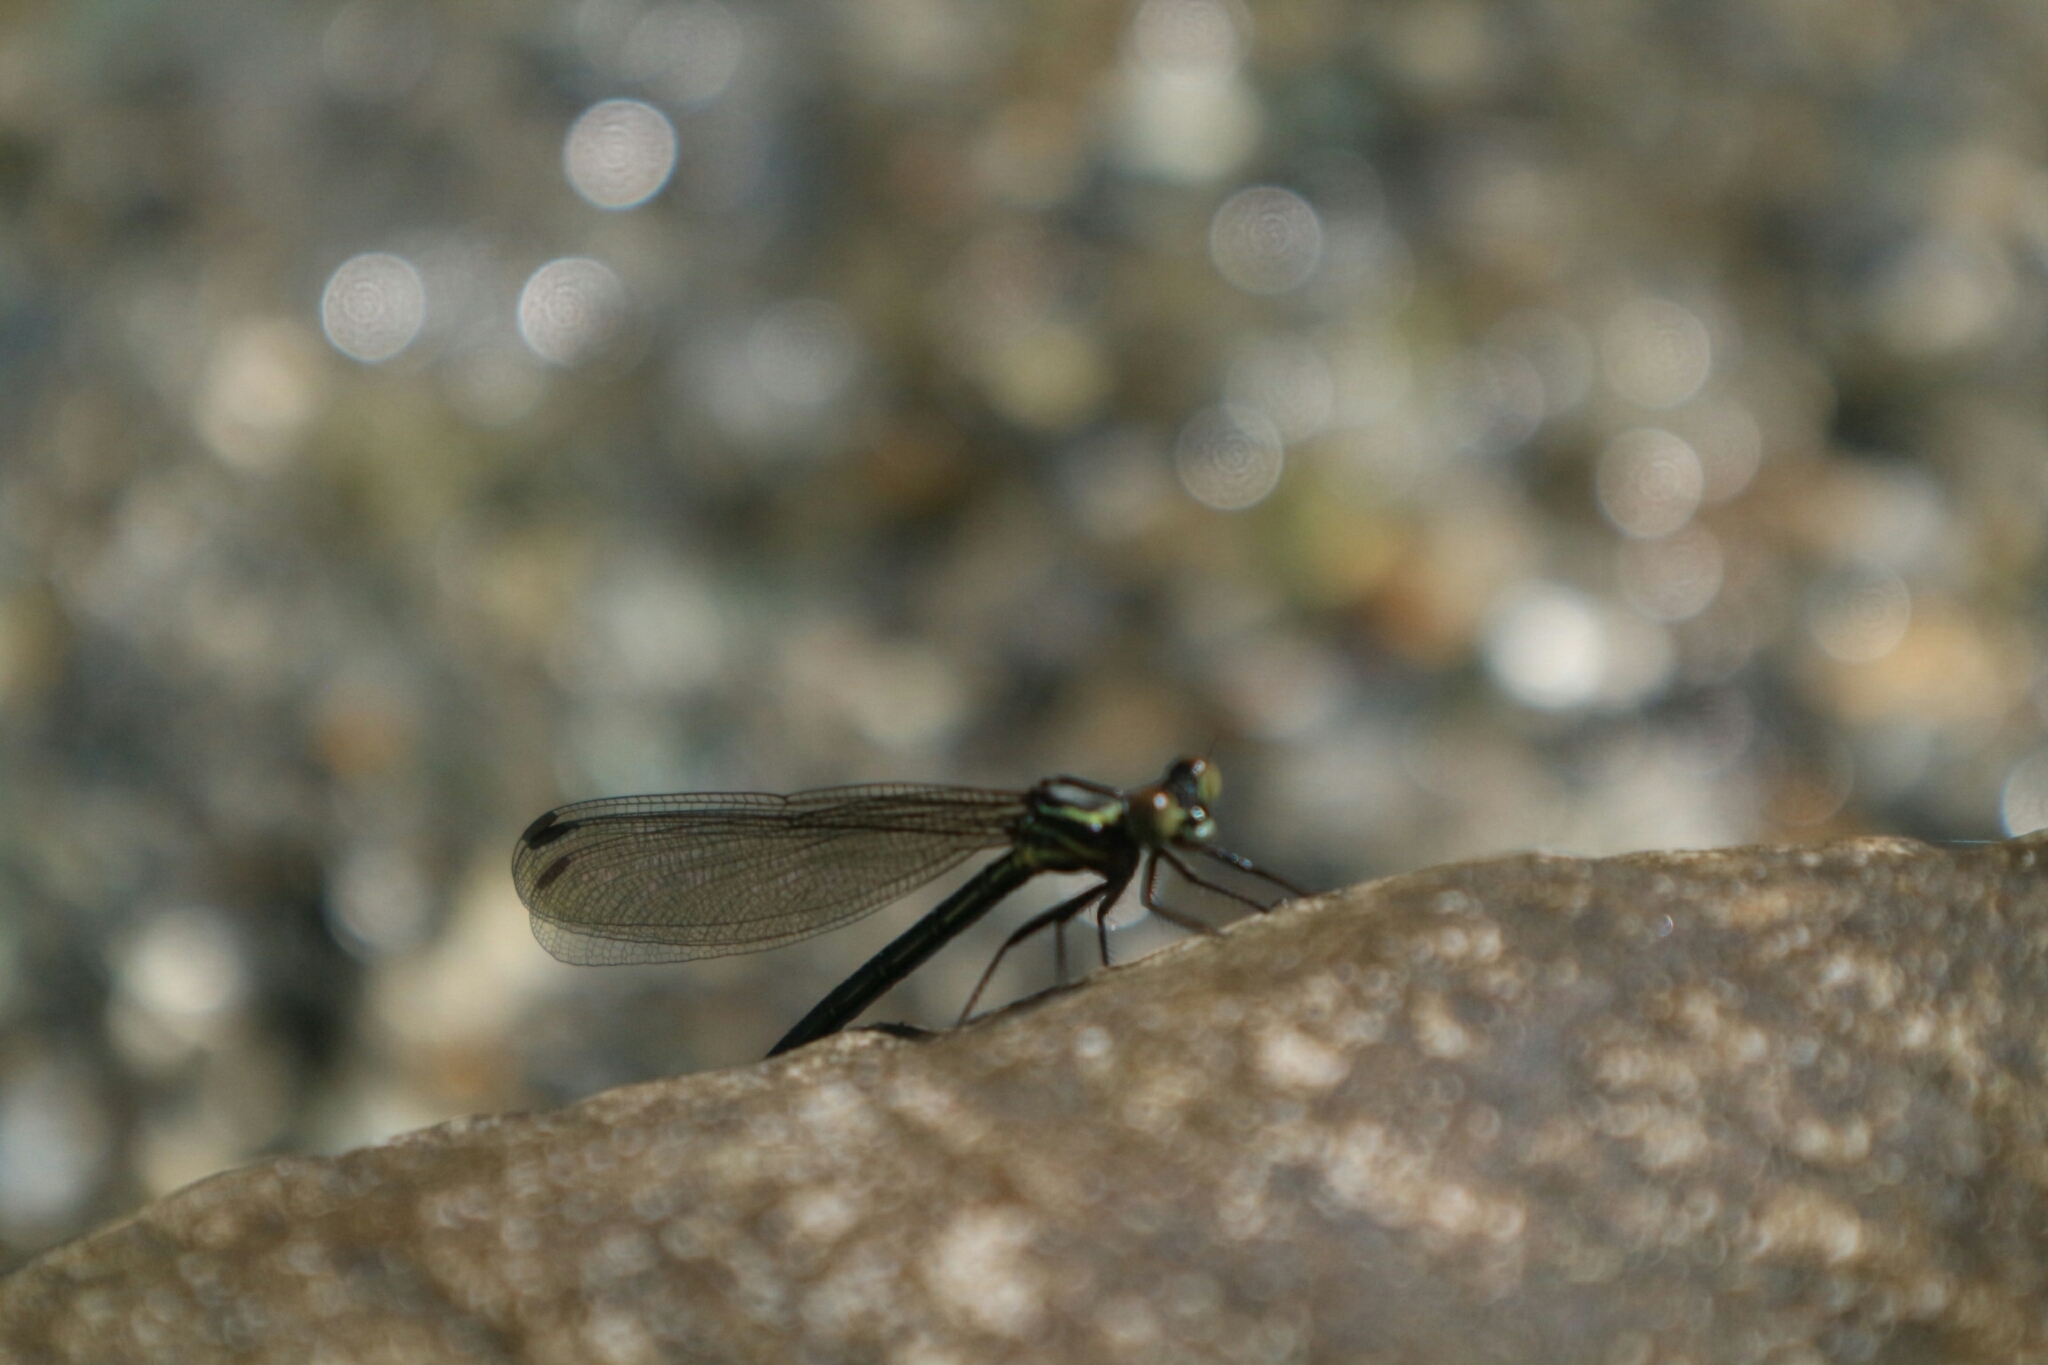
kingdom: Animalia
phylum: Arthropoda
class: Insecta
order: Odonata
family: Euphaeidae
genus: Euphaea
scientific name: Euphaea formosa
